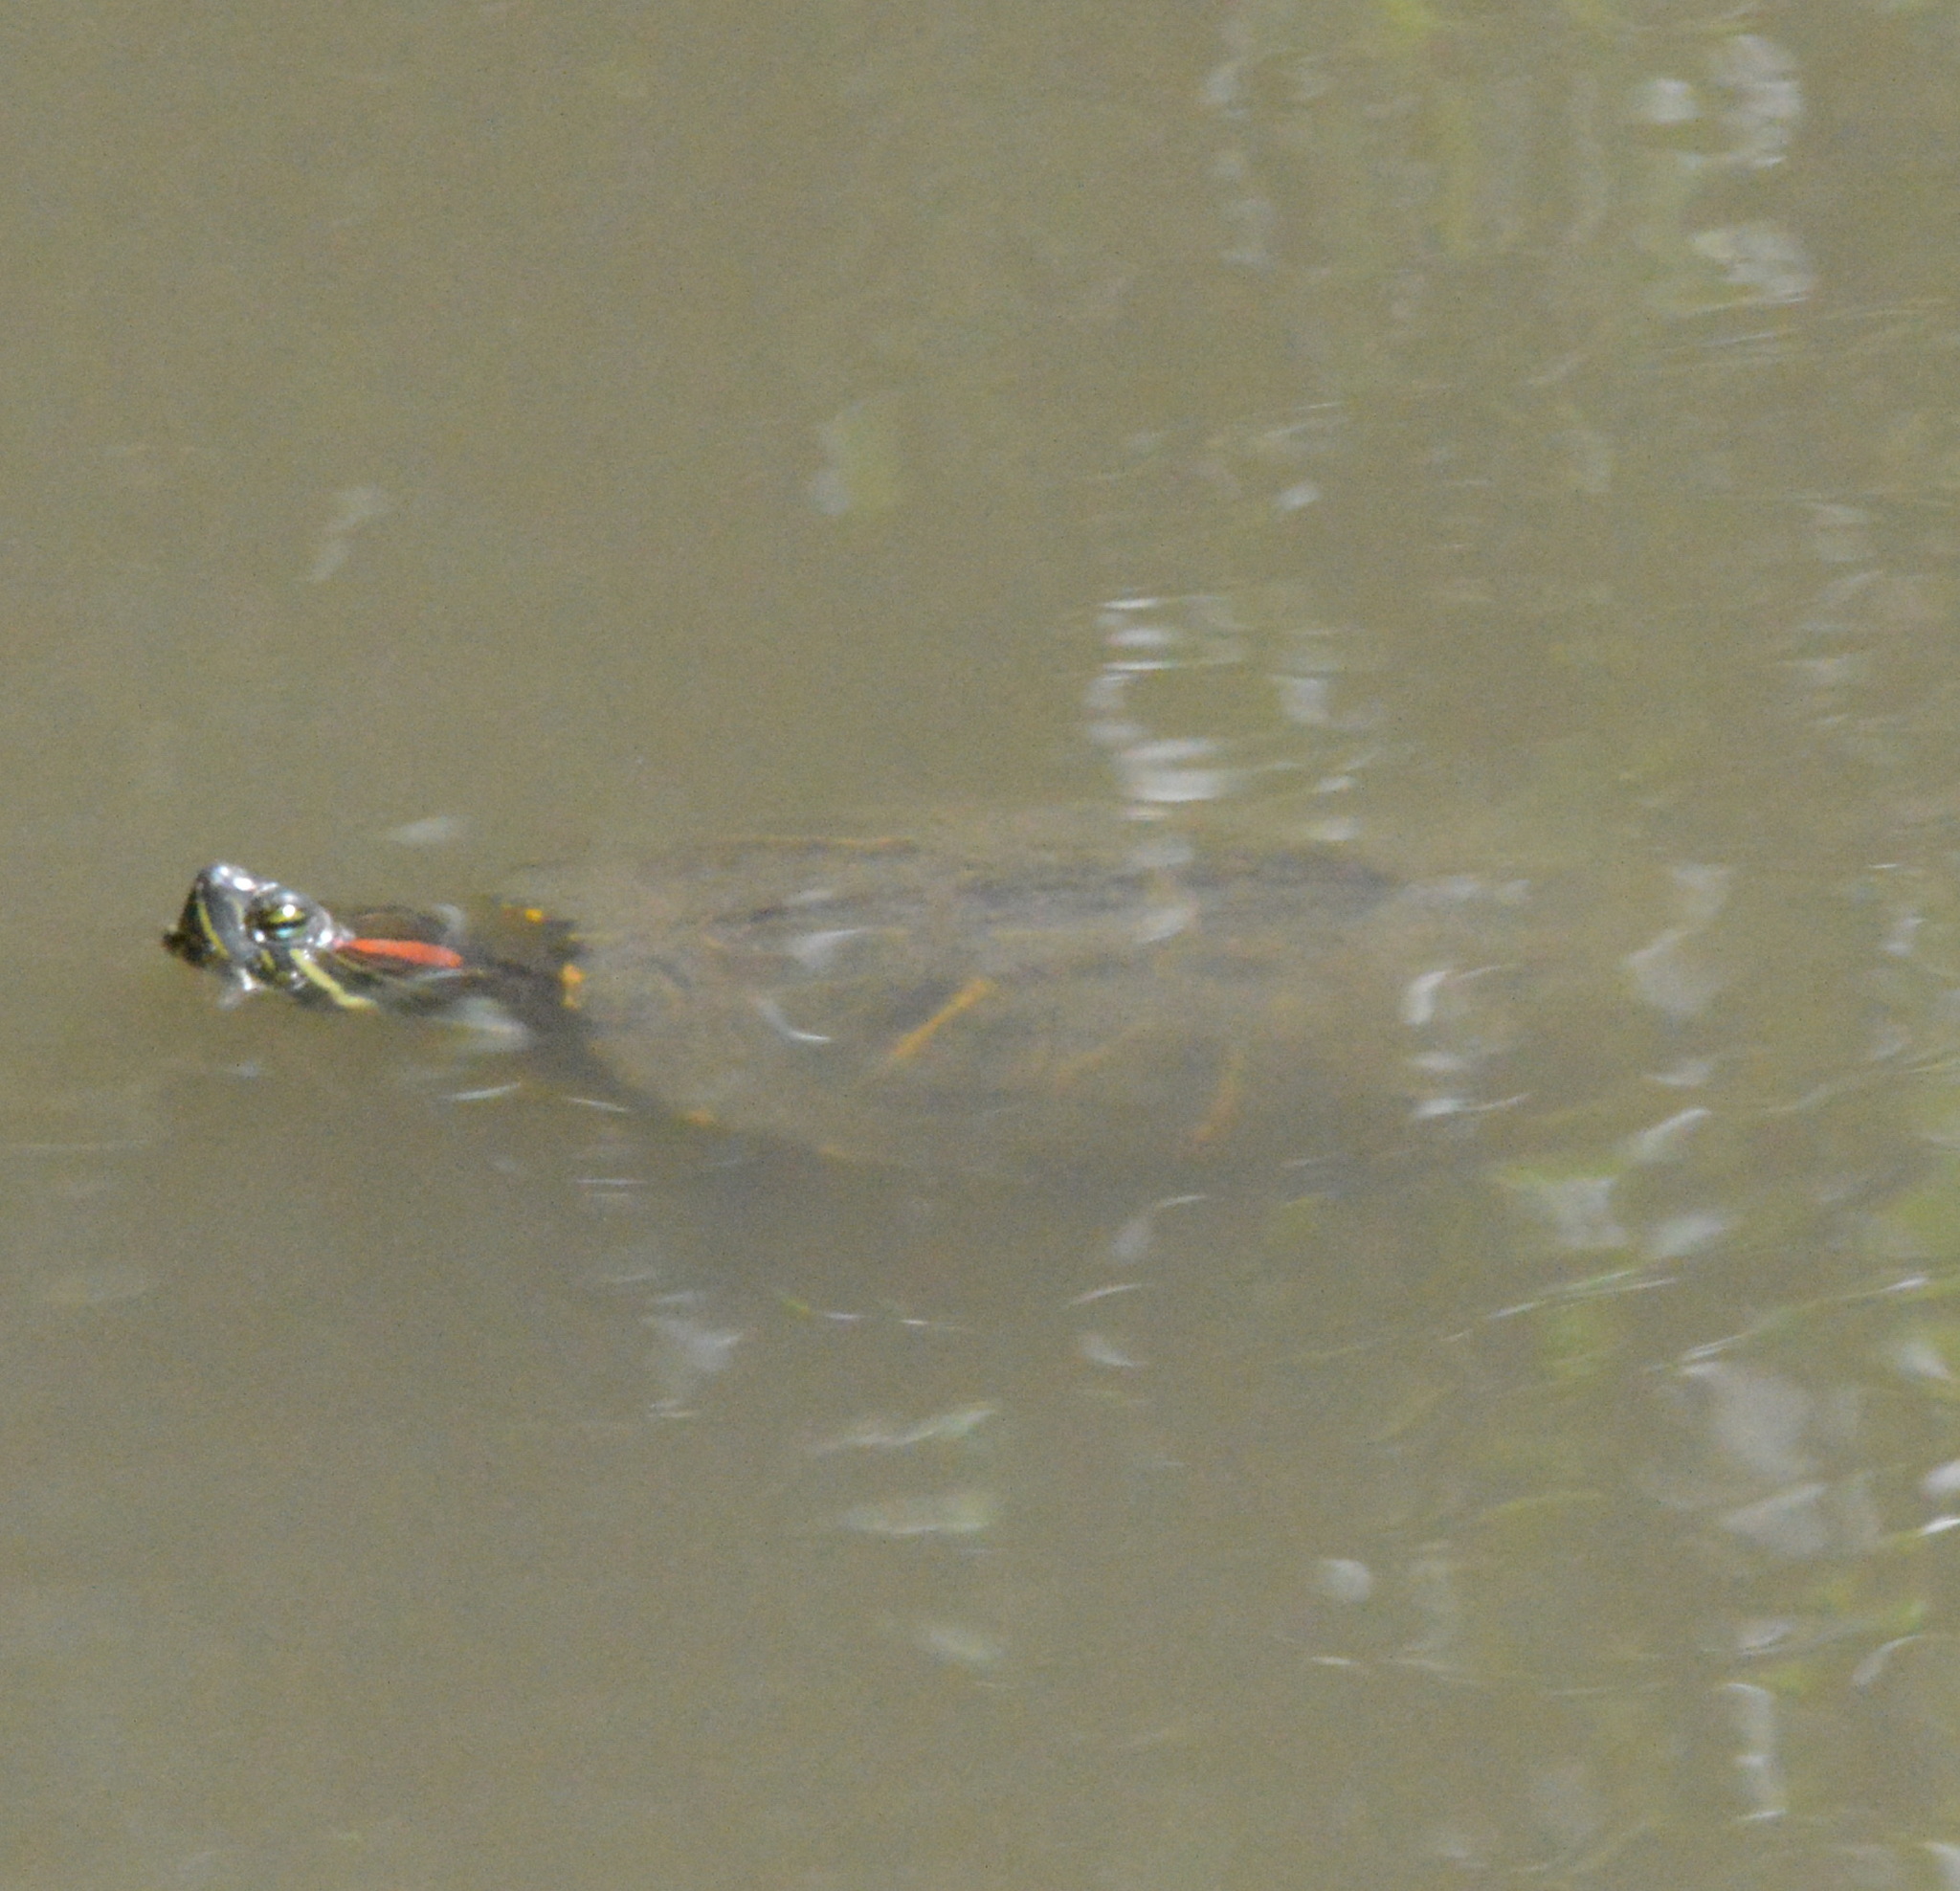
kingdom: Animalia
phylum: Chordata
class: Testudines
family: Emydidae
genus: Trachemys
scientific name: Trachemys scripta
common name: Slider
